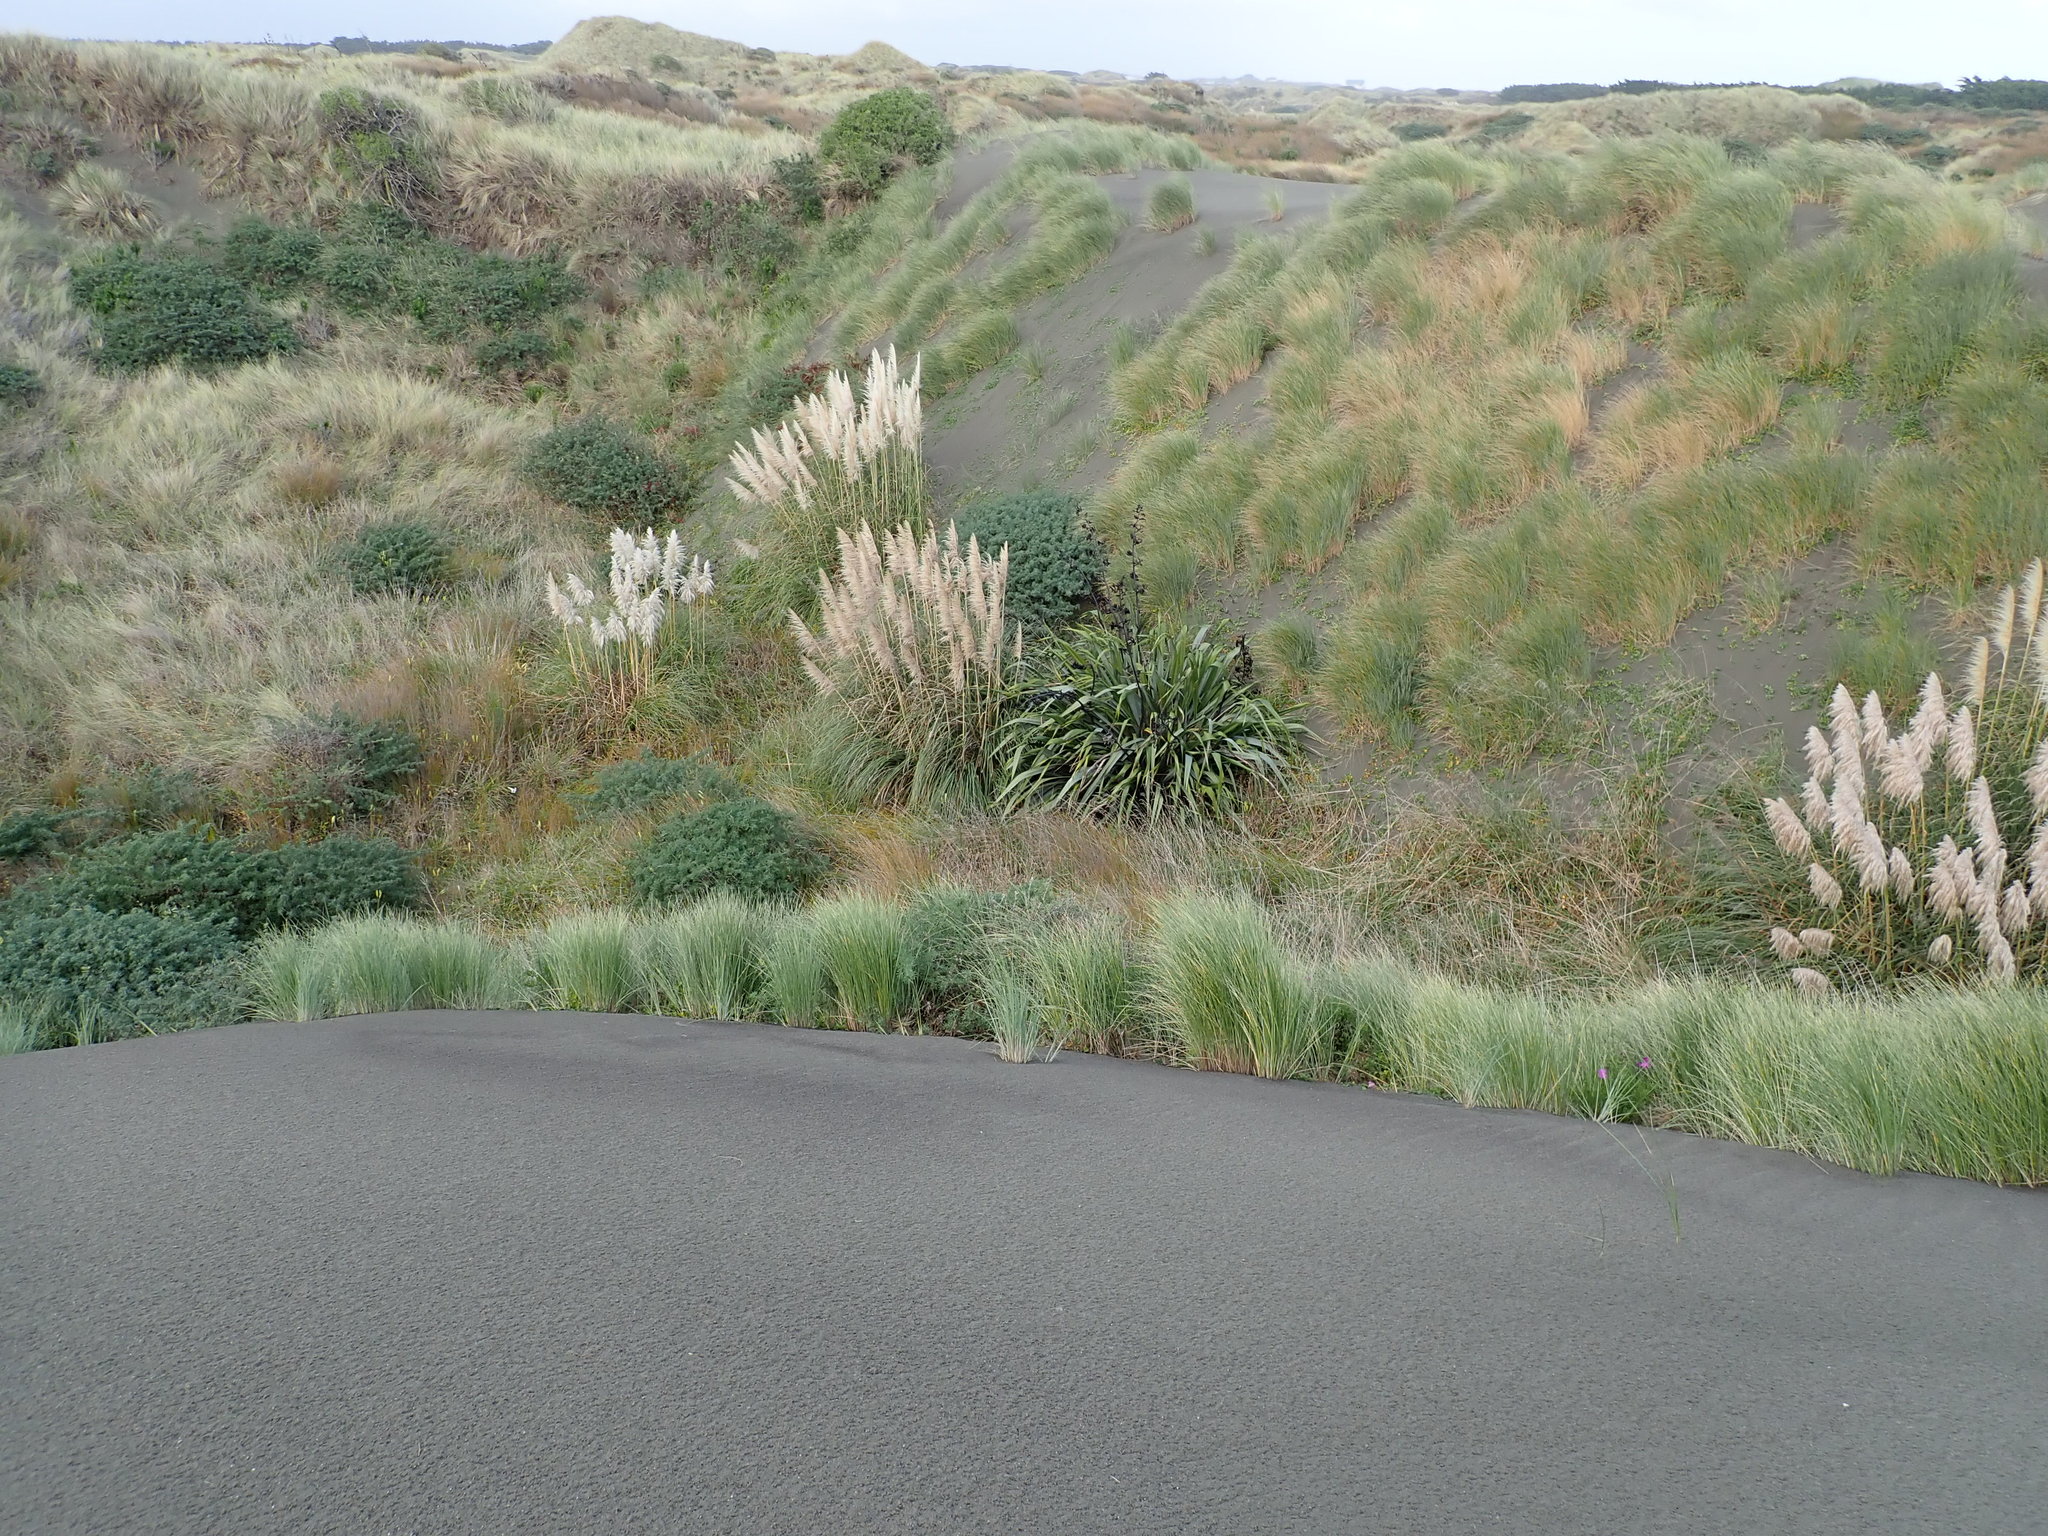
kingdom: Plantae
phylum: Tracheophyta
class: Liliopsida
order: Poales
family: Poaceae
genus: Cortaderia
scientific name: Cortaderia selloana
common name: Uruguayan pampas grass
